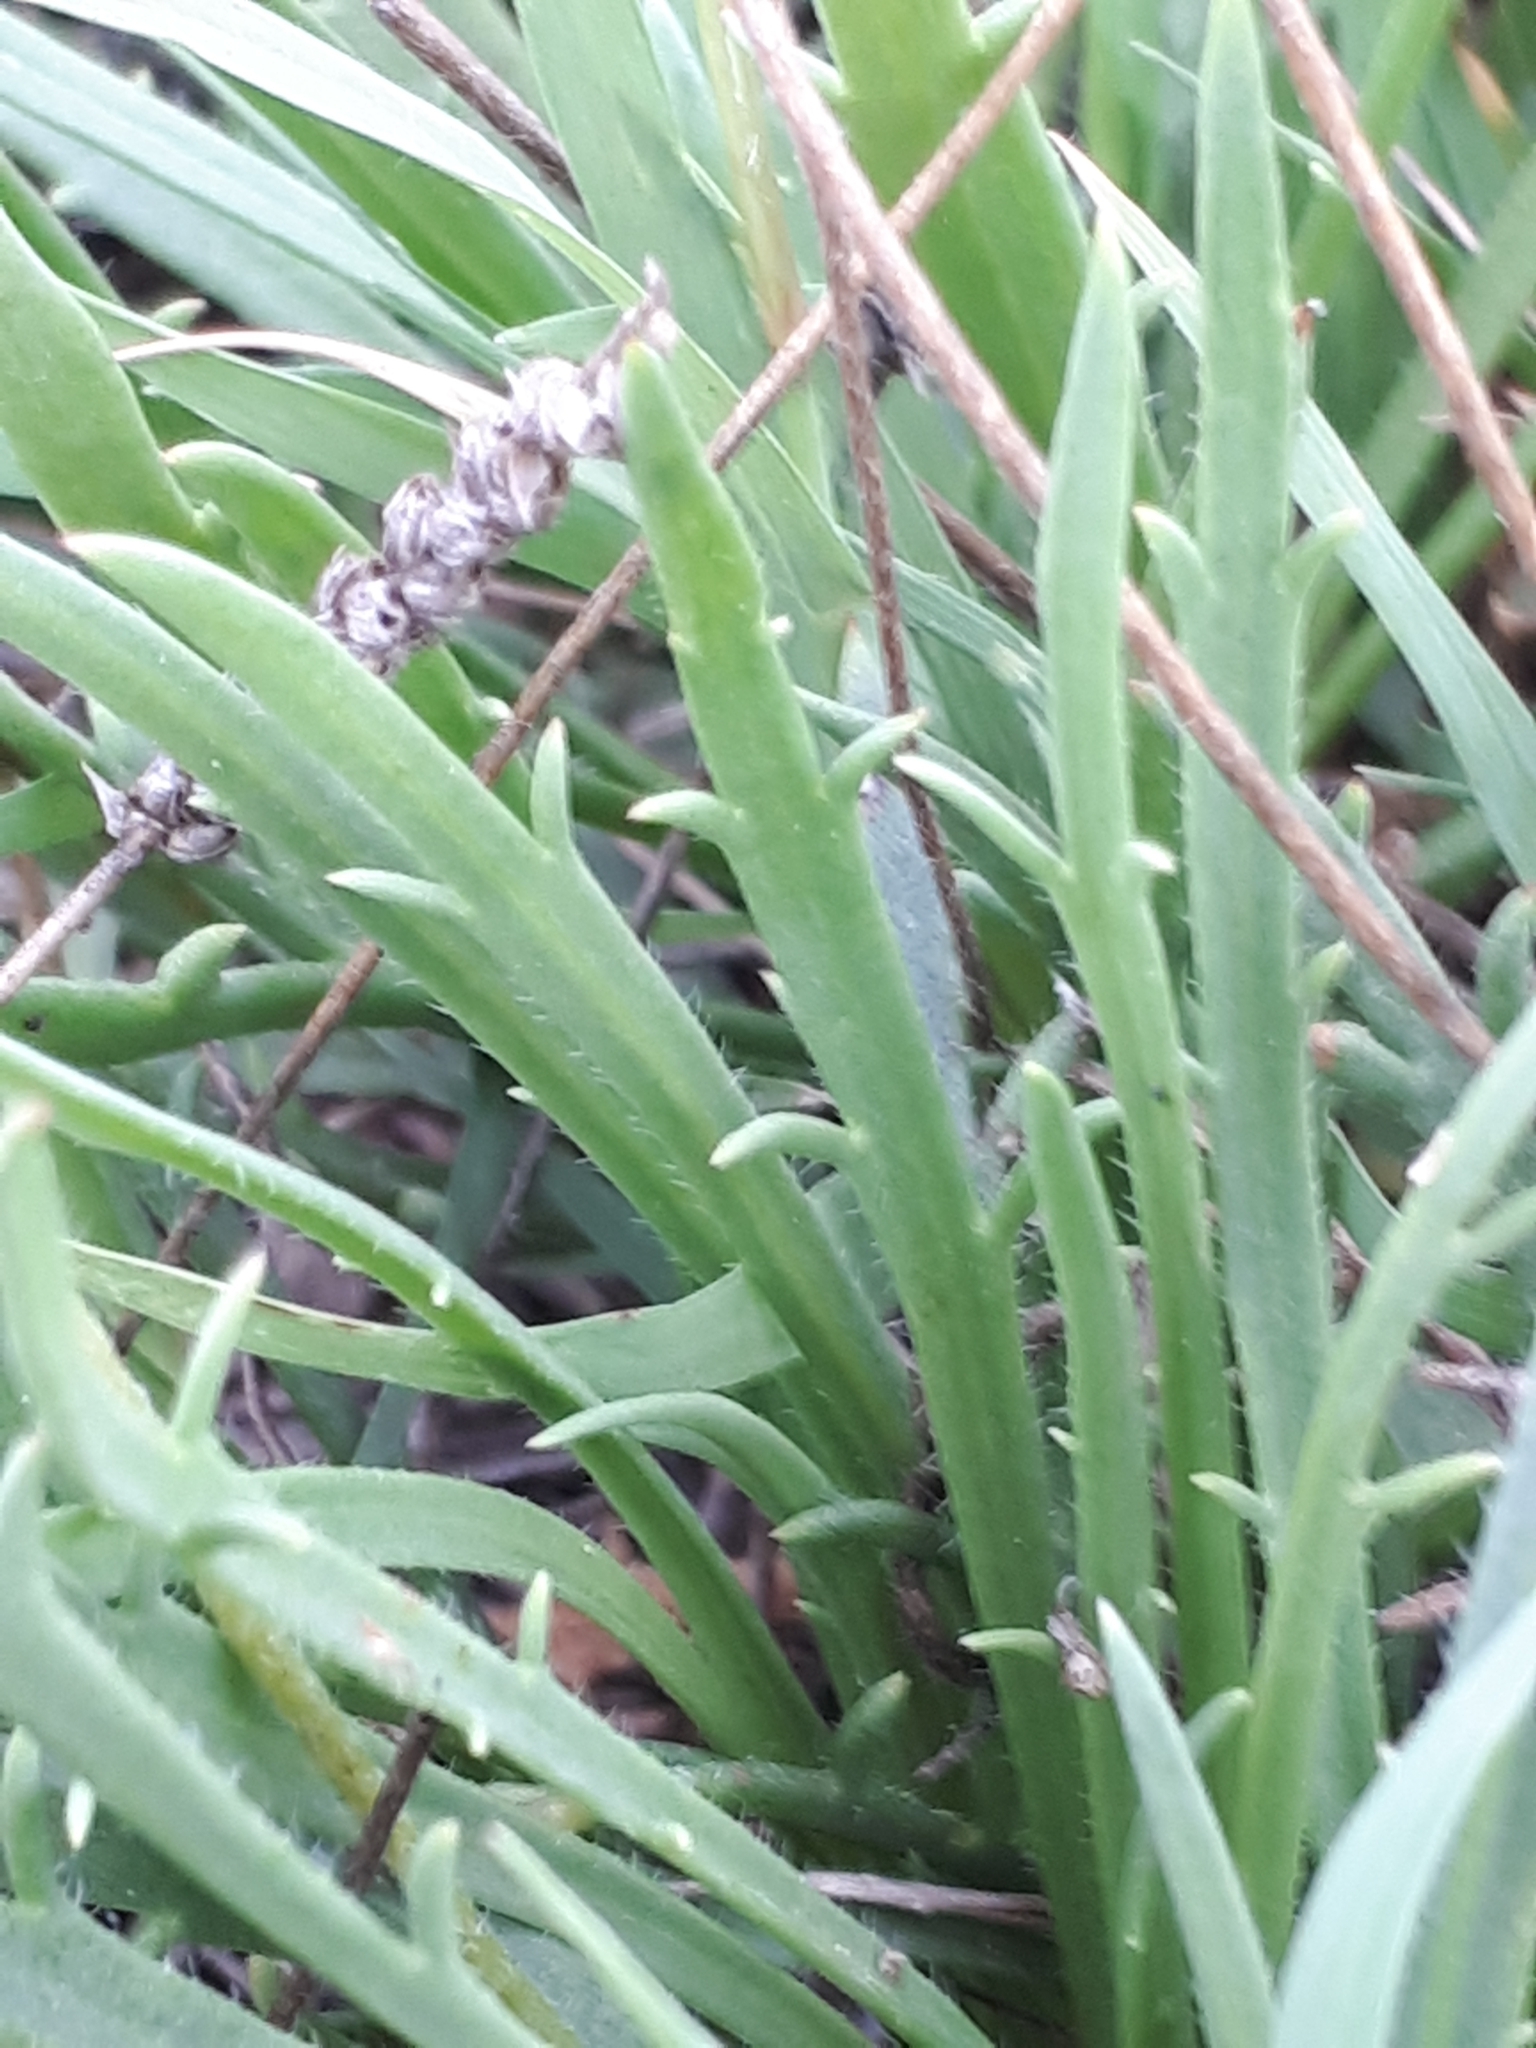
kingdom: Plantae
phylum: Tracheophyta
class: Magnoliopsida
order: Lamiales
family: Plantaginaceae
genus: Plantago
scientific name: Plantago coronopus
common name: Buck's-horn plantain
